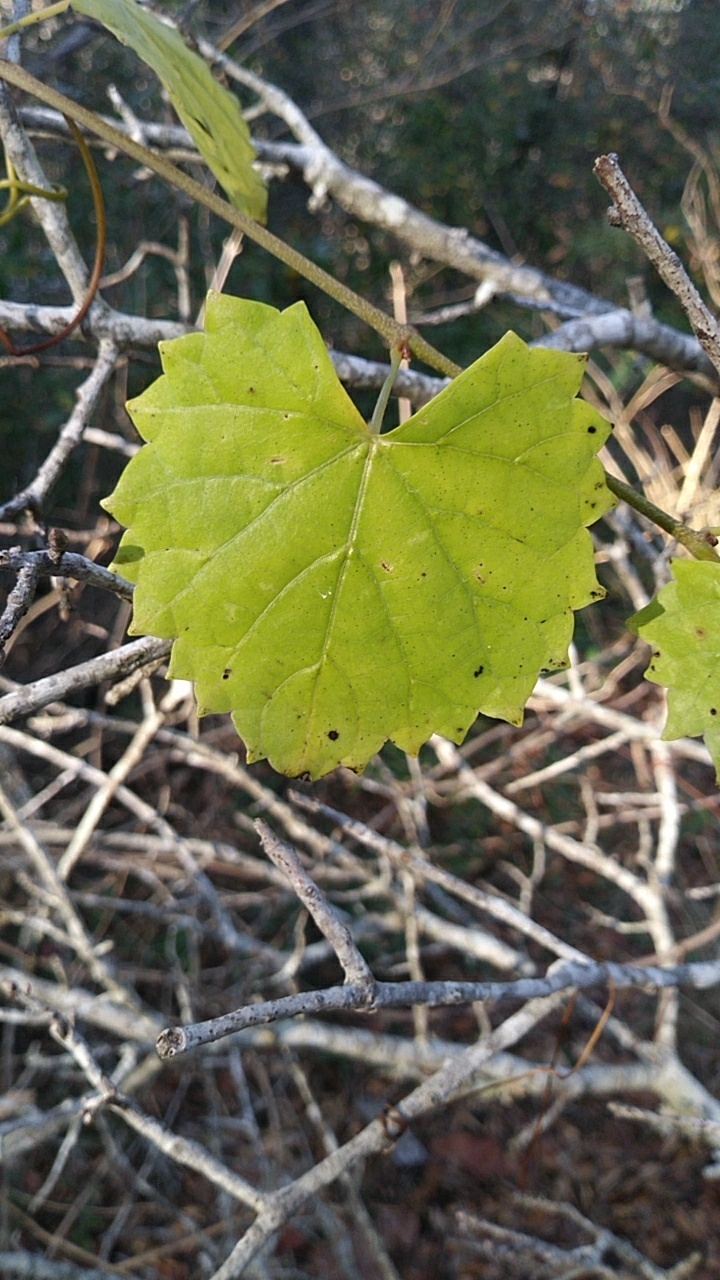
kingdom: Plantae
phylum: Tracheophyta
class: Magnoliopsida
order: Vitales
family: Vitaceae
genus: Vitis
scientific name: Vitis rotundifolia
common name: Muscadine grape
